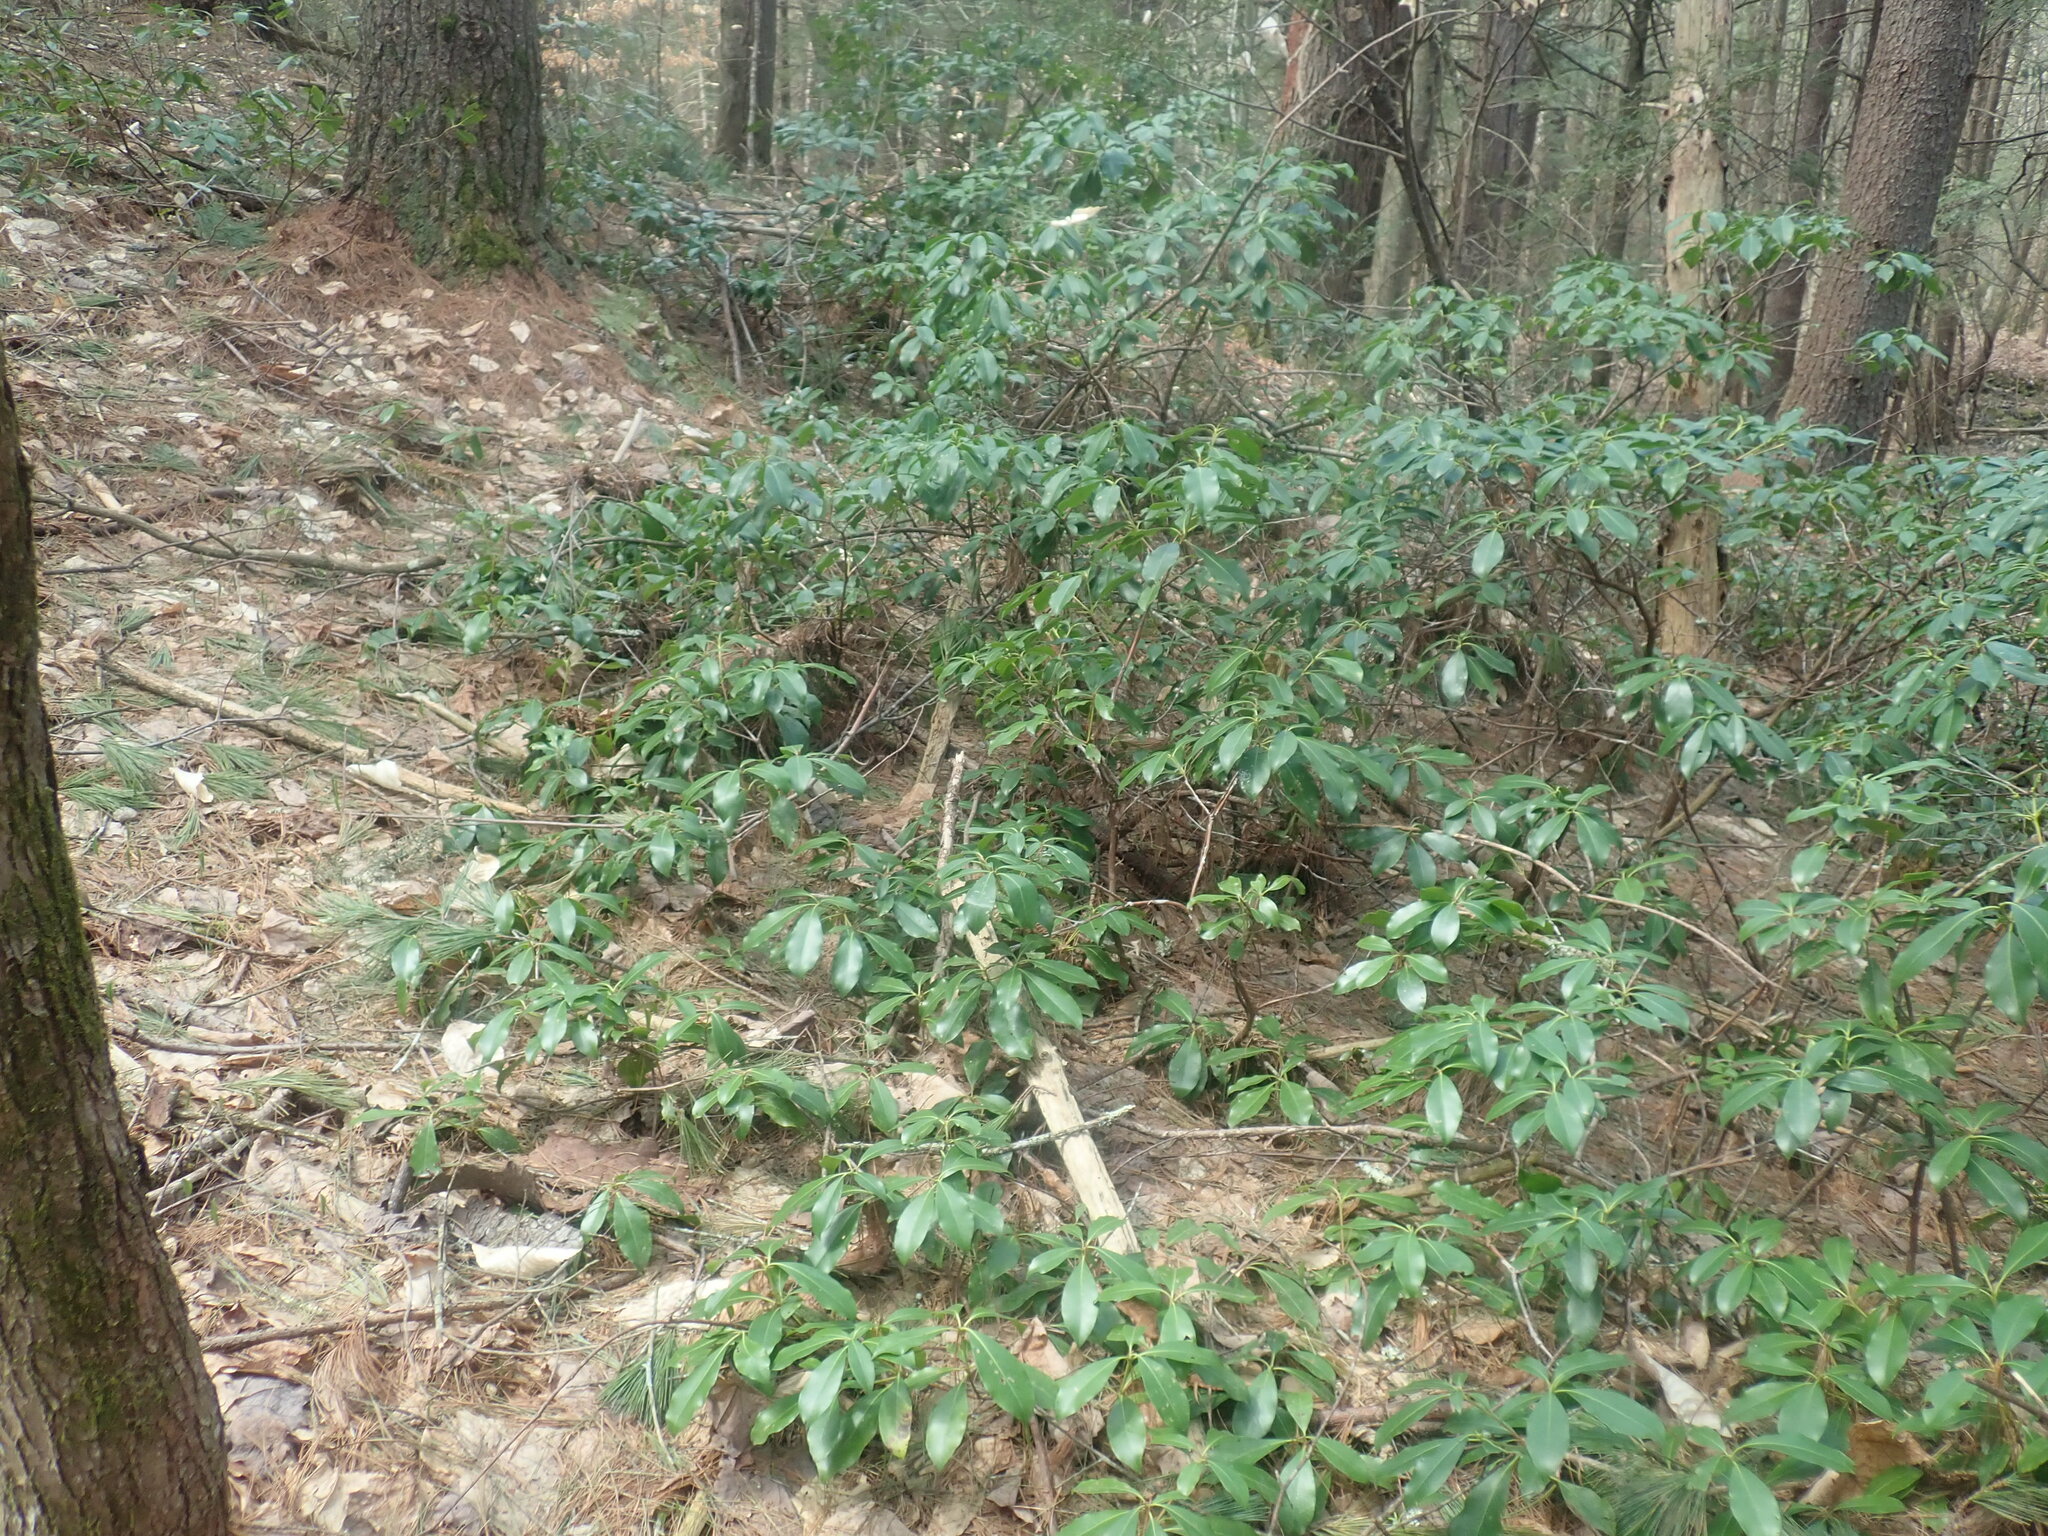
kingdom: Plantae
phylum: Tracheophyta
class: Magnoliopsida
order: Ericales
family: Ericaceae
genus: Kalmia
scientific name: Kalmia latifolia
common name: Mountain-laurel
